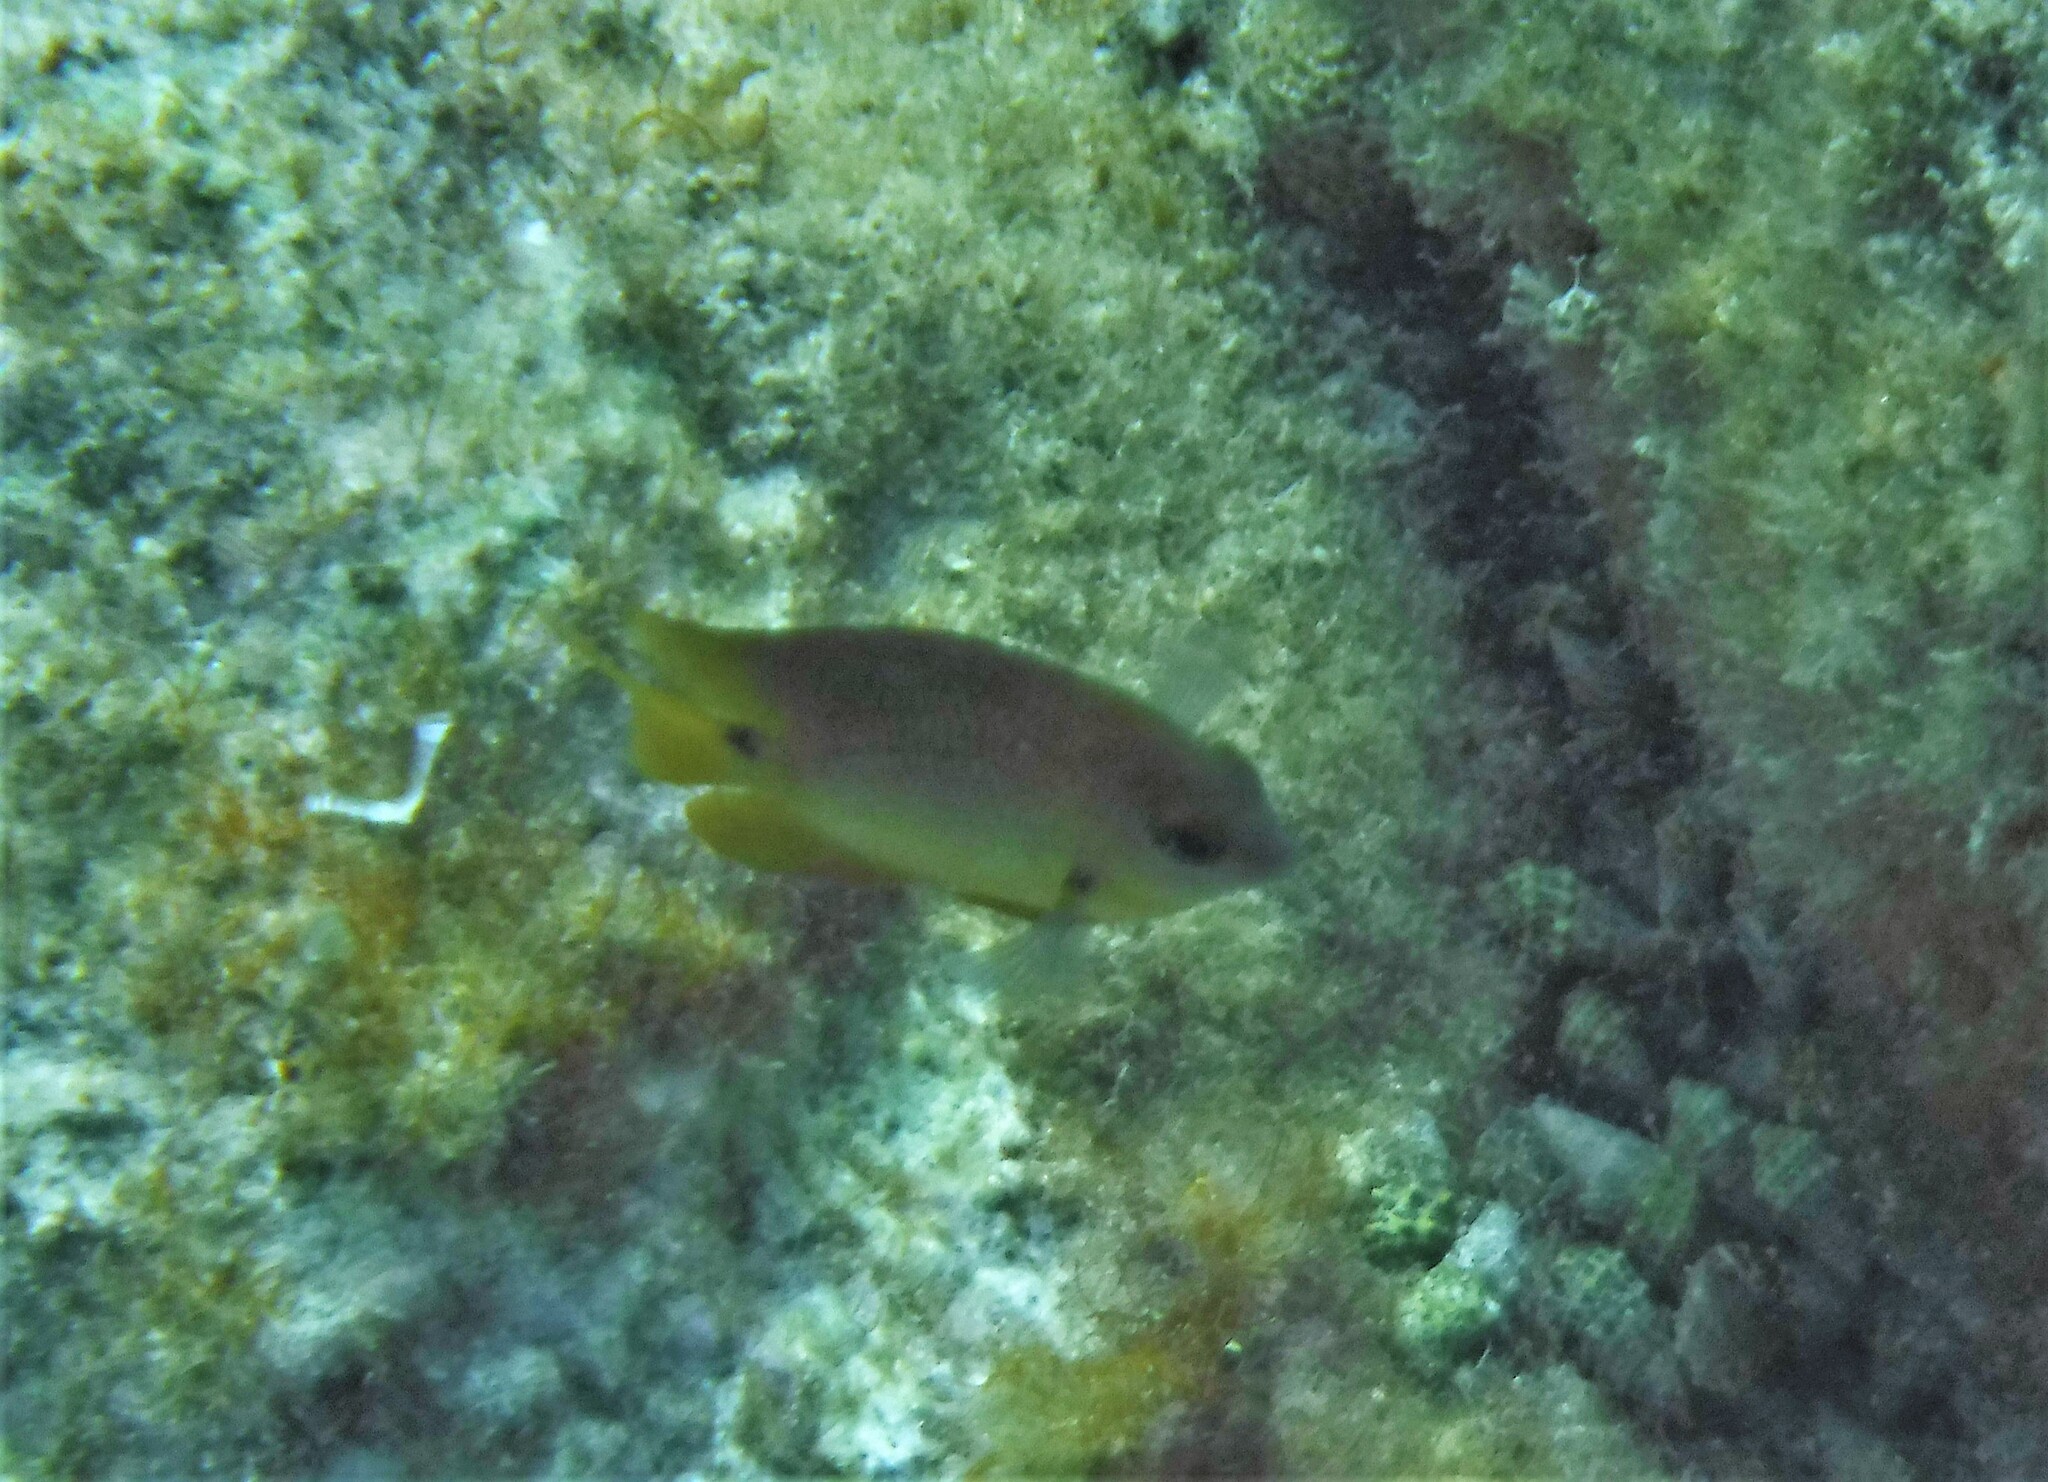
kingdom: Animalia
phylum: Chordata
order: Perciformes
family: Pomacentridae
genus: Stegastes
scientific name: Stegastes planifrons
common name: Threespot damselfish
